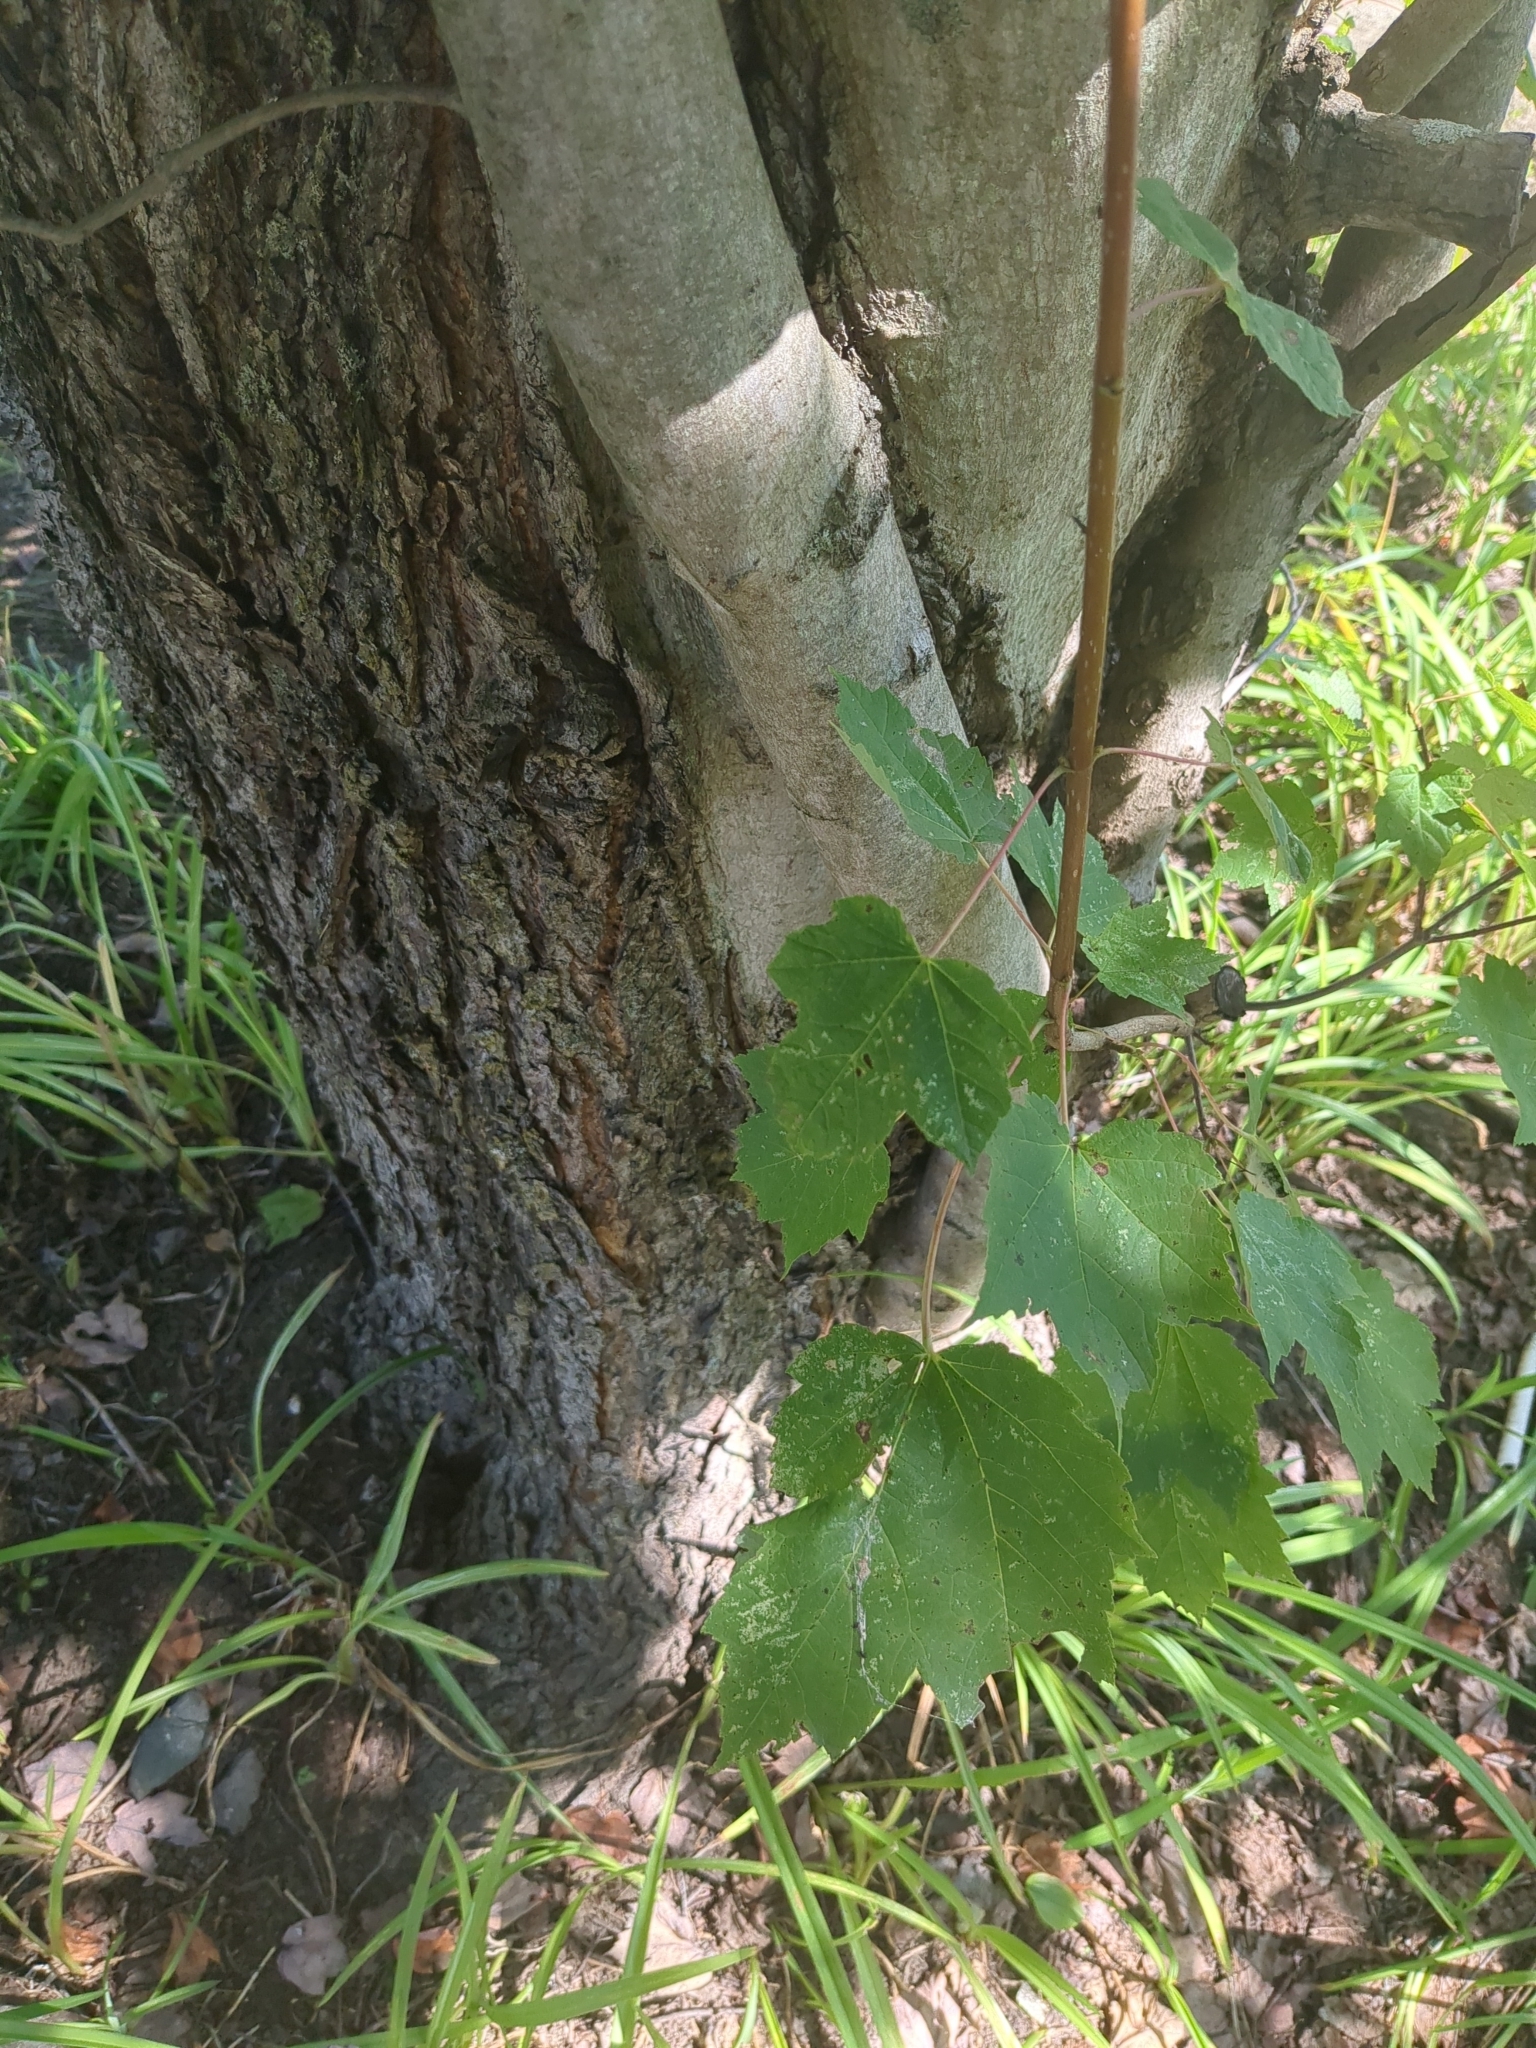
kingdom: Plantae
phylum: Tracheophyta
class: Magnoliopsida
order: Sapindales
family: Sapindaceae
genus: Acer
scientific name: Acer rubrum
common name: Red maple
